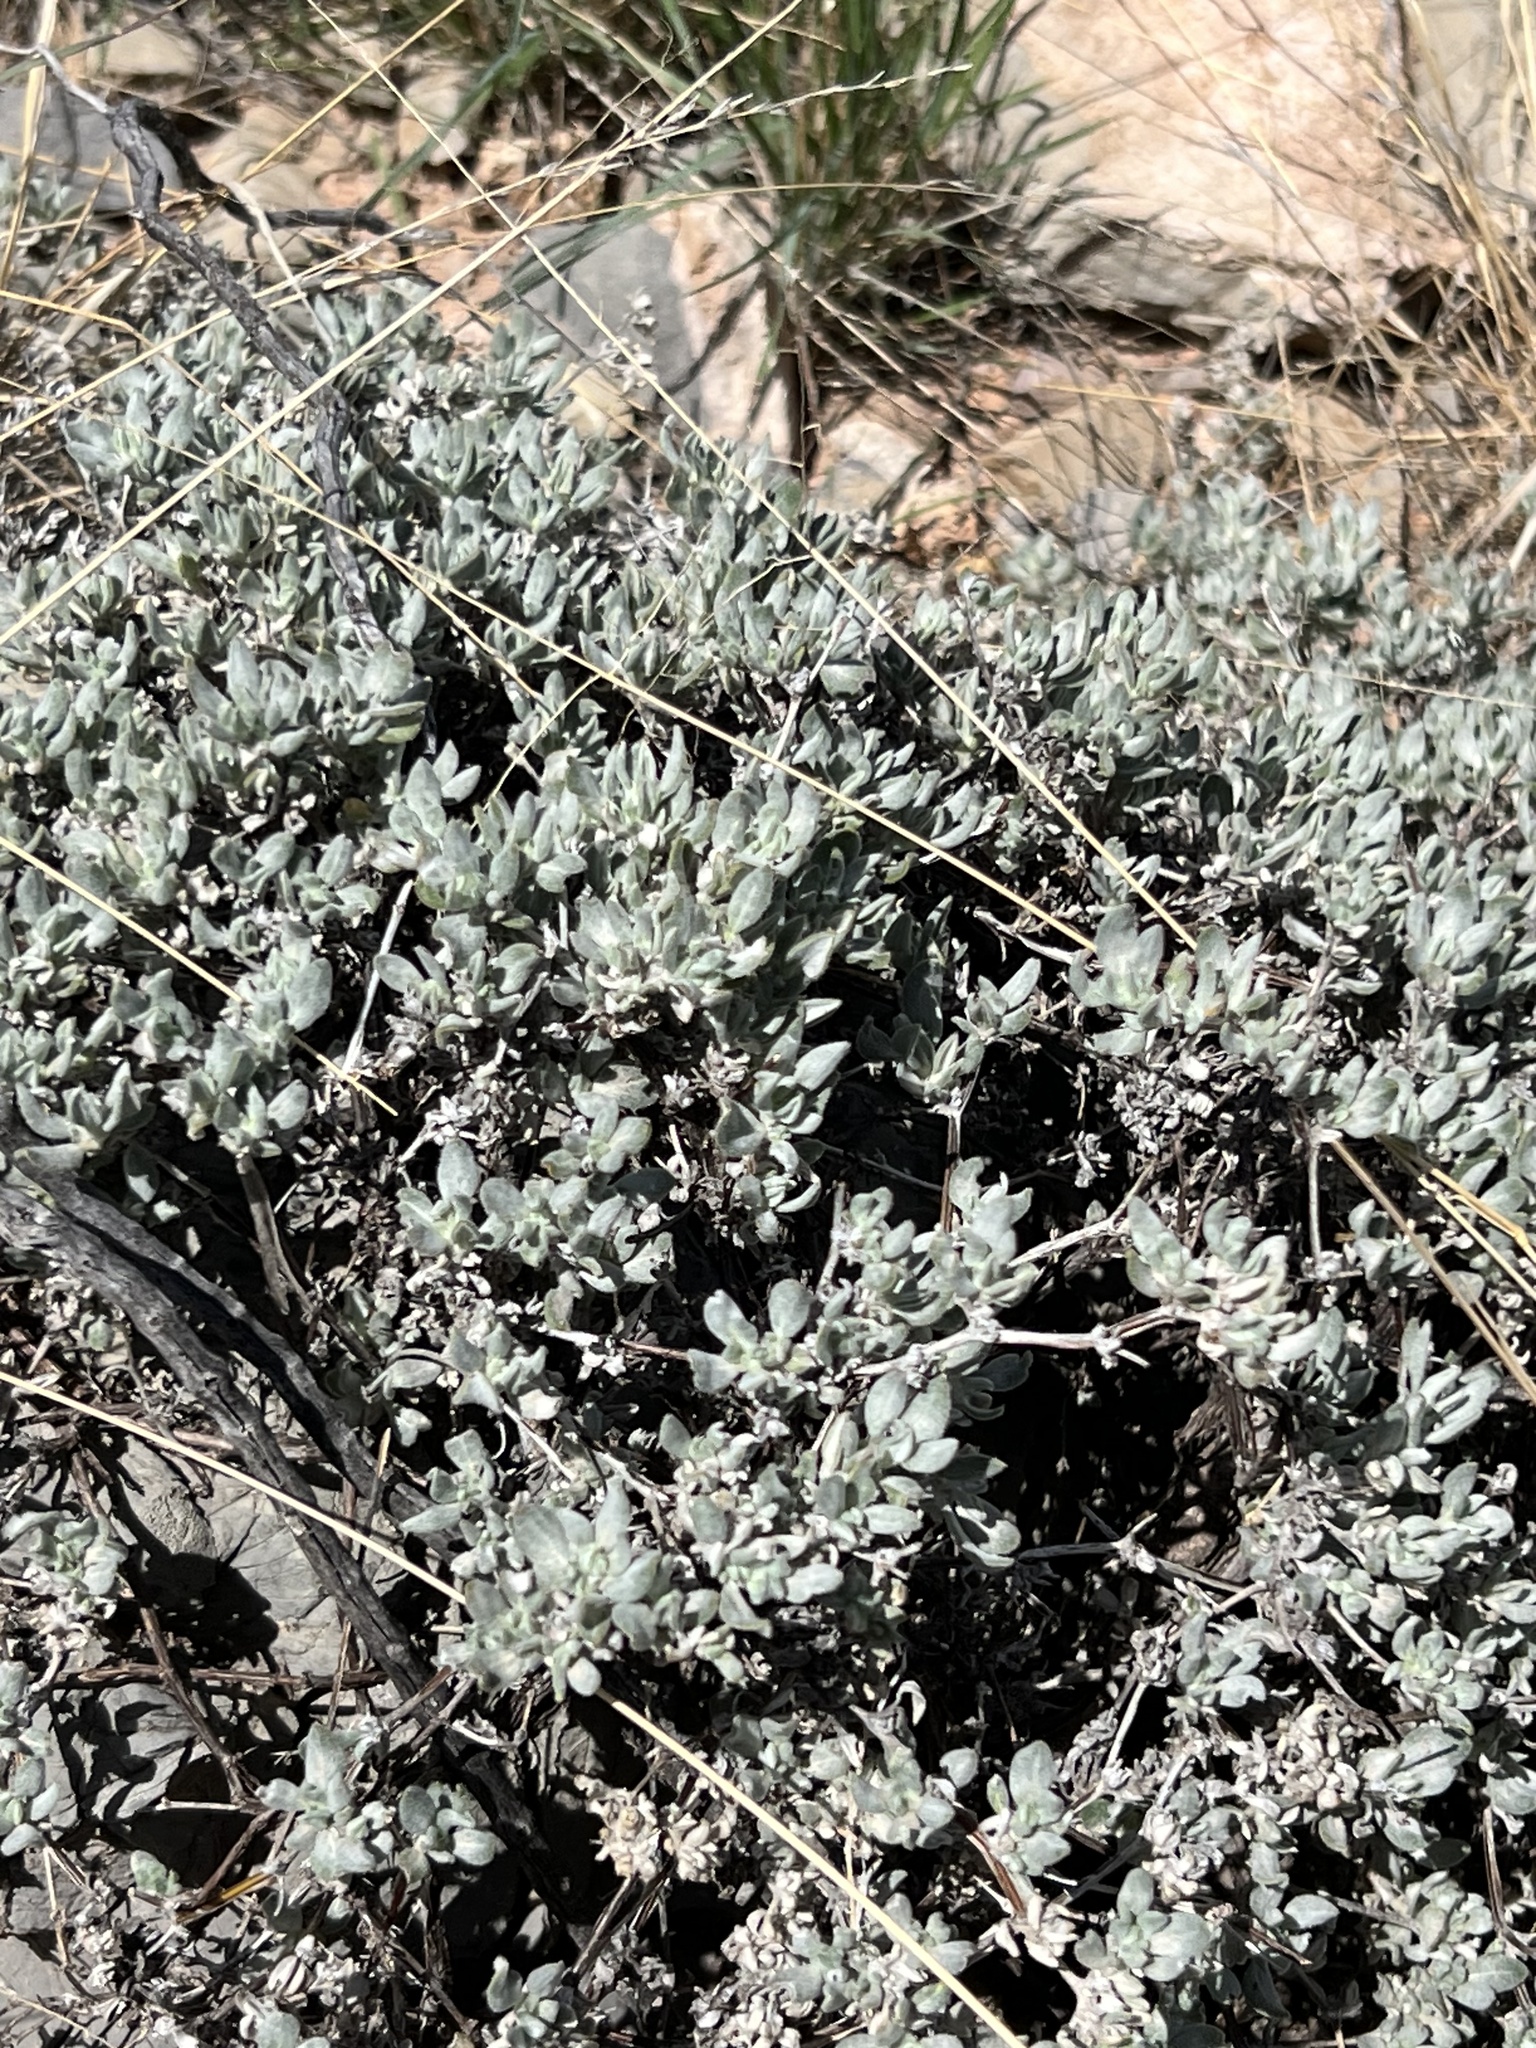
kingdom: Plantae
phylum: Tracheophyta
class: Magnoliopsida
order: Boraginales
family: Ehretiaceae
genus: Tiquilia
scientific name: Tiquilia canescens
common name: Hairy tiquilia
